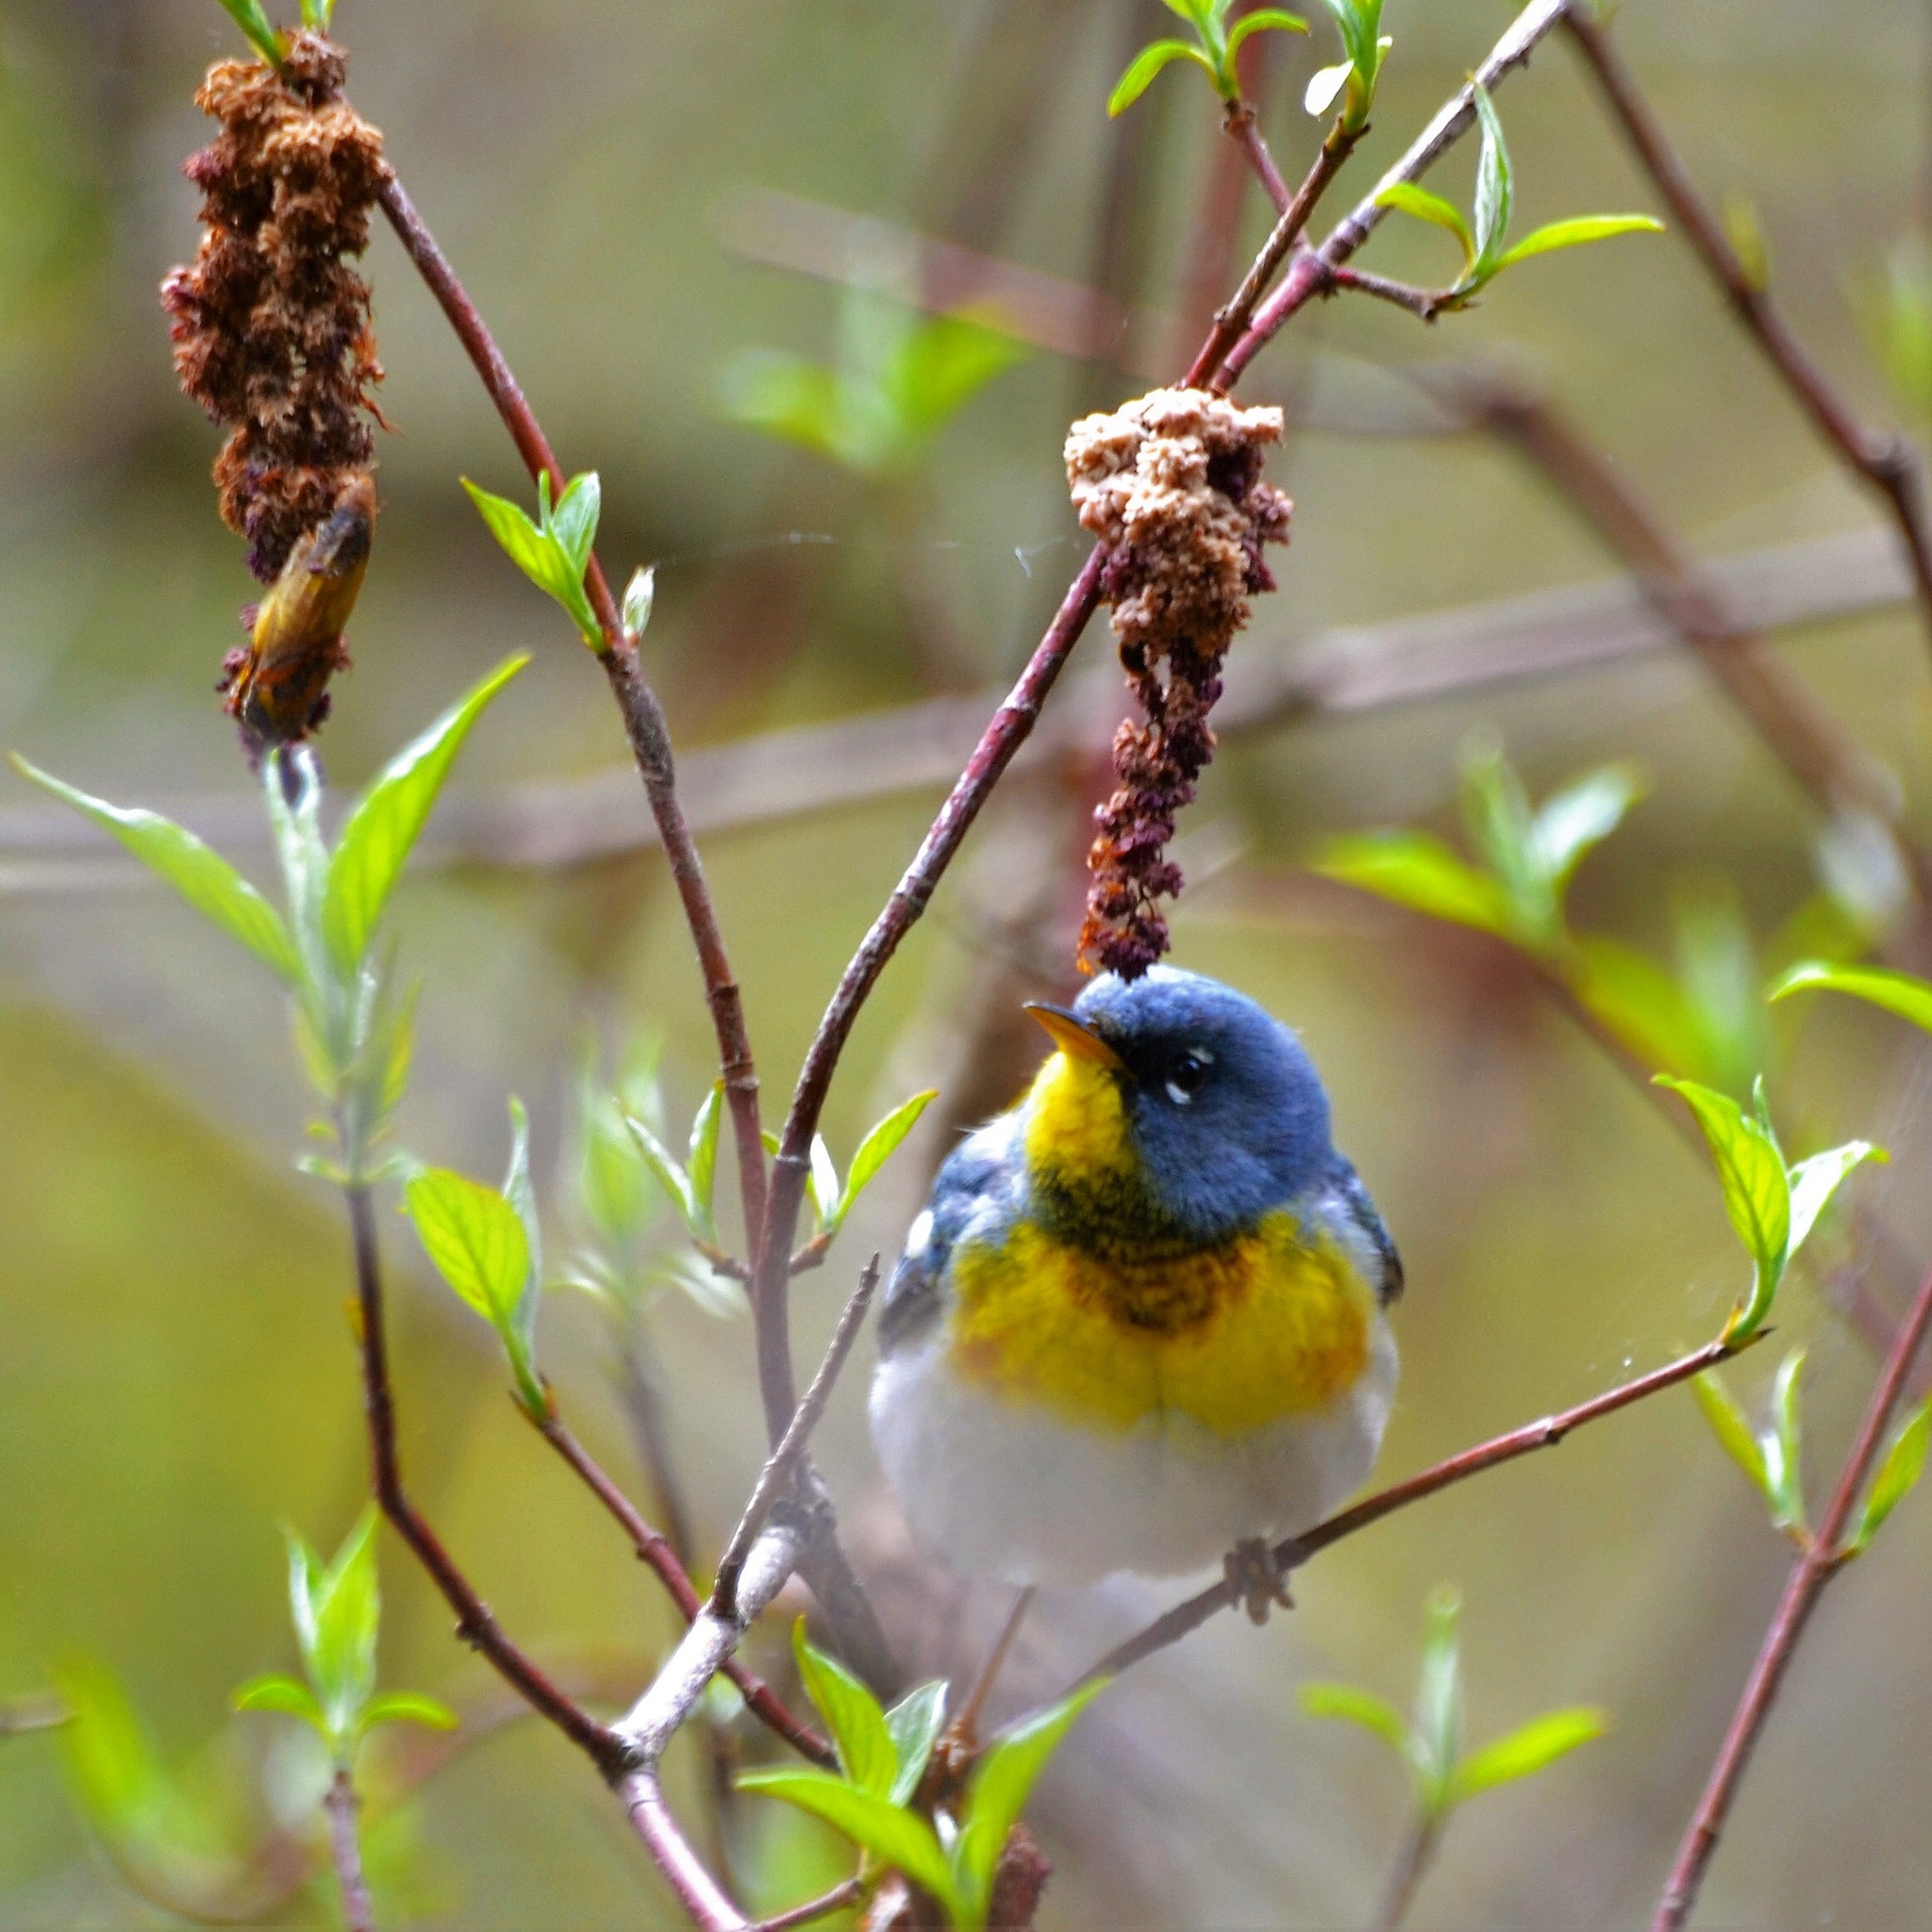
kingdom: Animalia
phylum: Chordata
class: Aves
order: Passeriformes
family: Parulidae
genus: Setophaga
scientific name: Setophaga americana
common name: Northern parula
